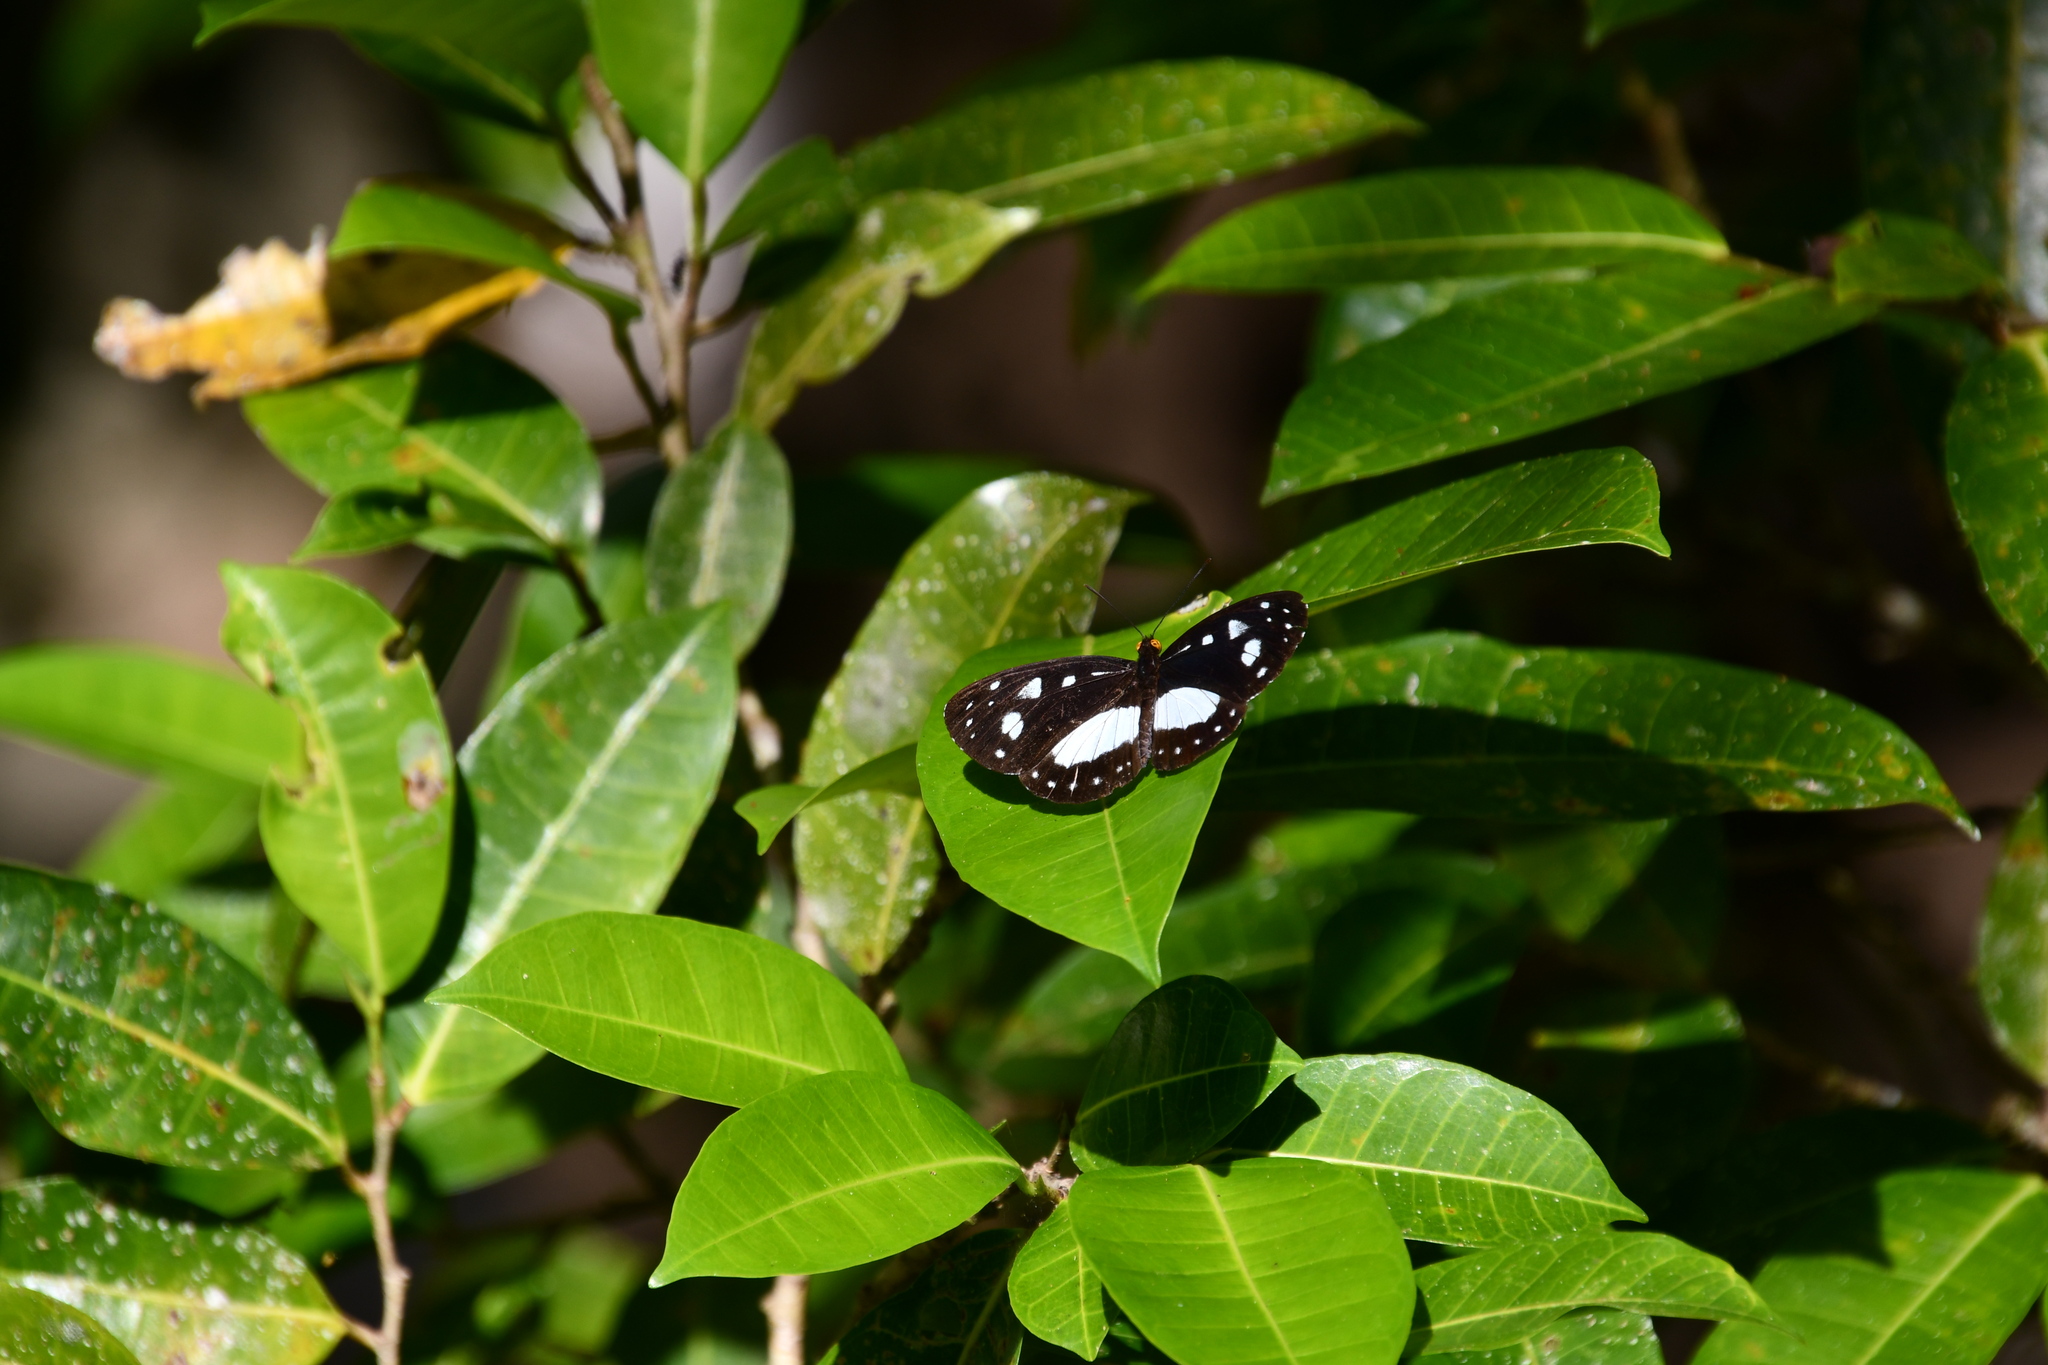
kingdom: Animalia
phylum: Arthropoda
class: Insecta
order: Lepidoptera
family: Nymphalidae
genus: Neptis
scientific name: Neptis praslini
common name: Yellow-eyed plane
